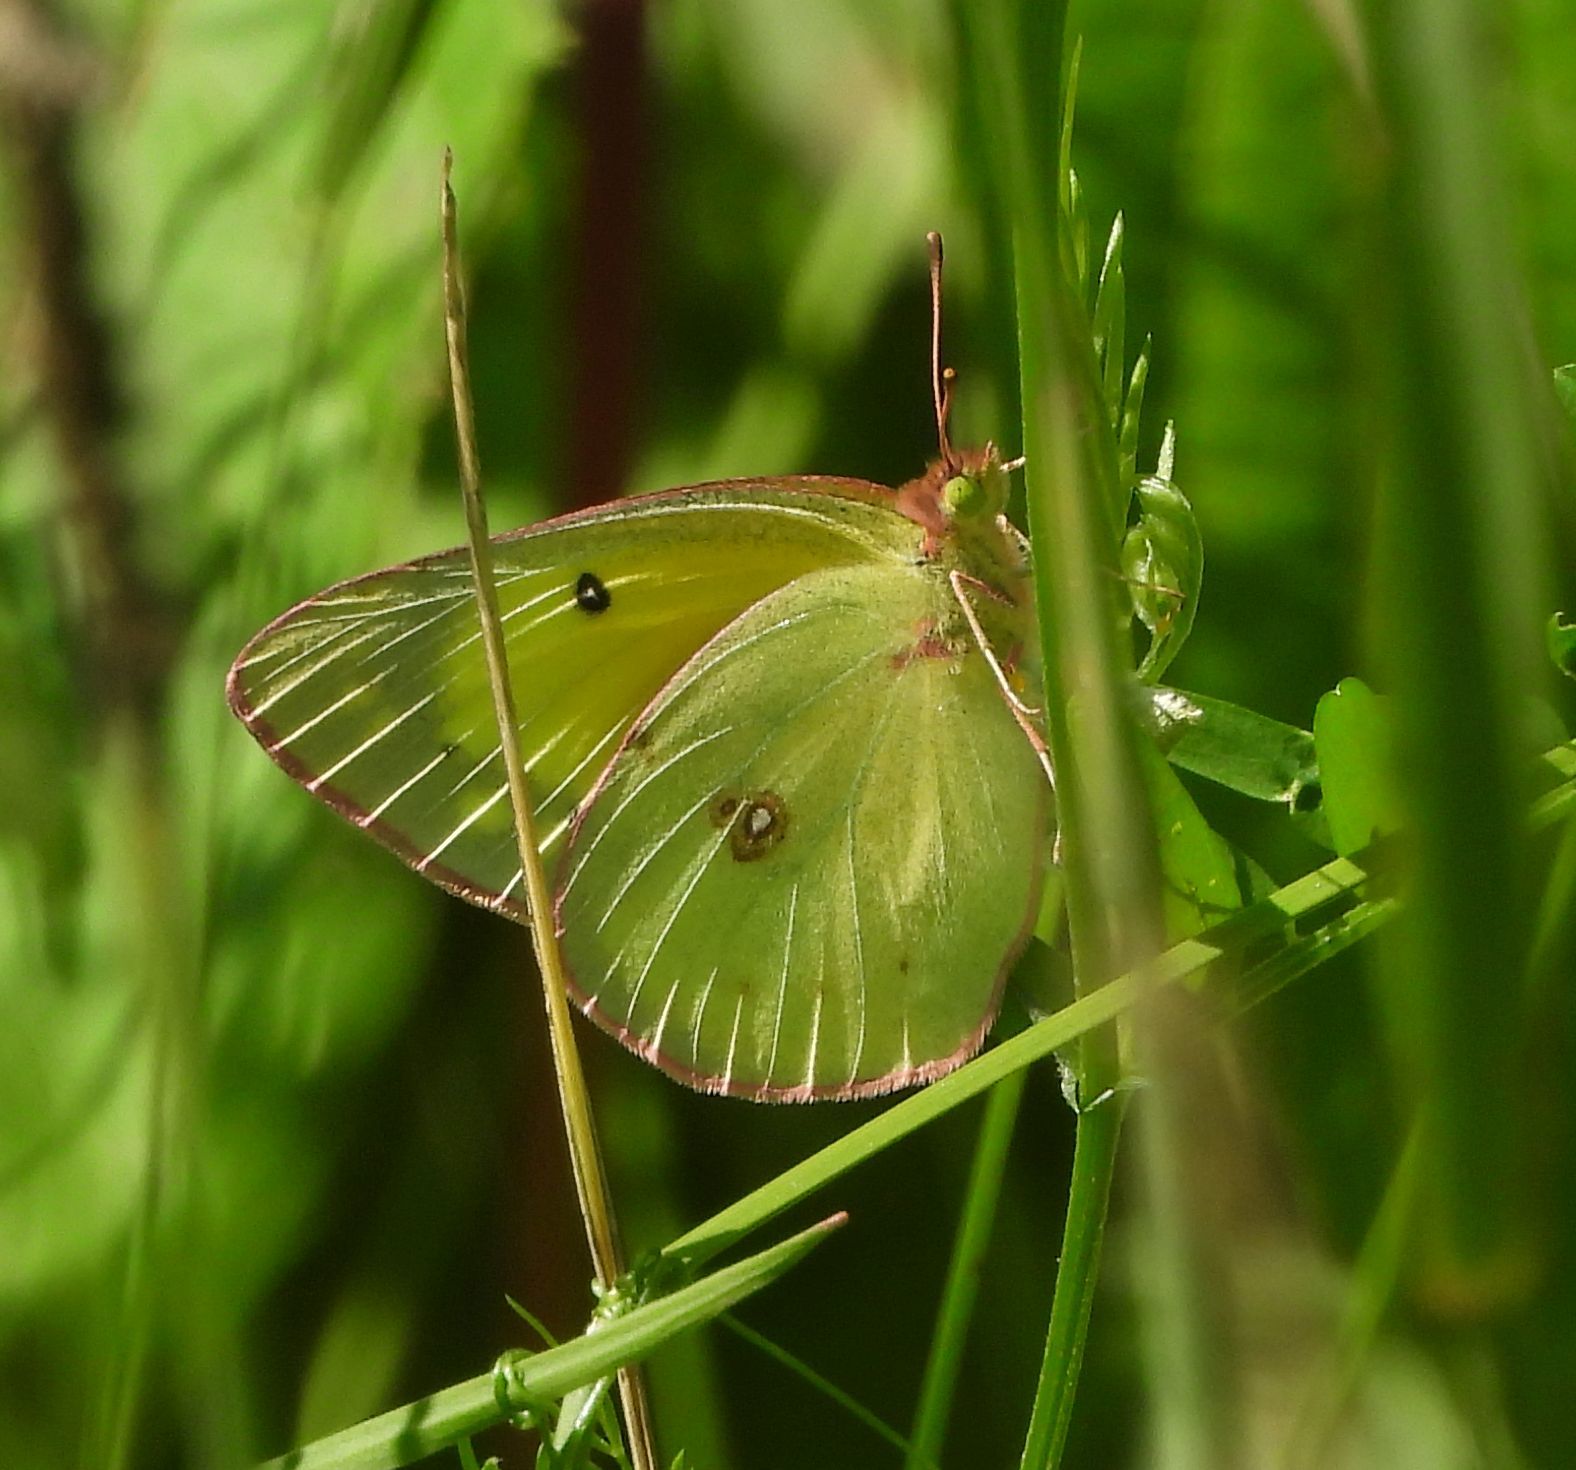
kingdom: Animalia
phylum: Arthropoda
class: Insecta
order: Lepidoptera
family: Pieridae
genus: Colias
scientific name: Colias philodice
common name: Clouded sulphur
